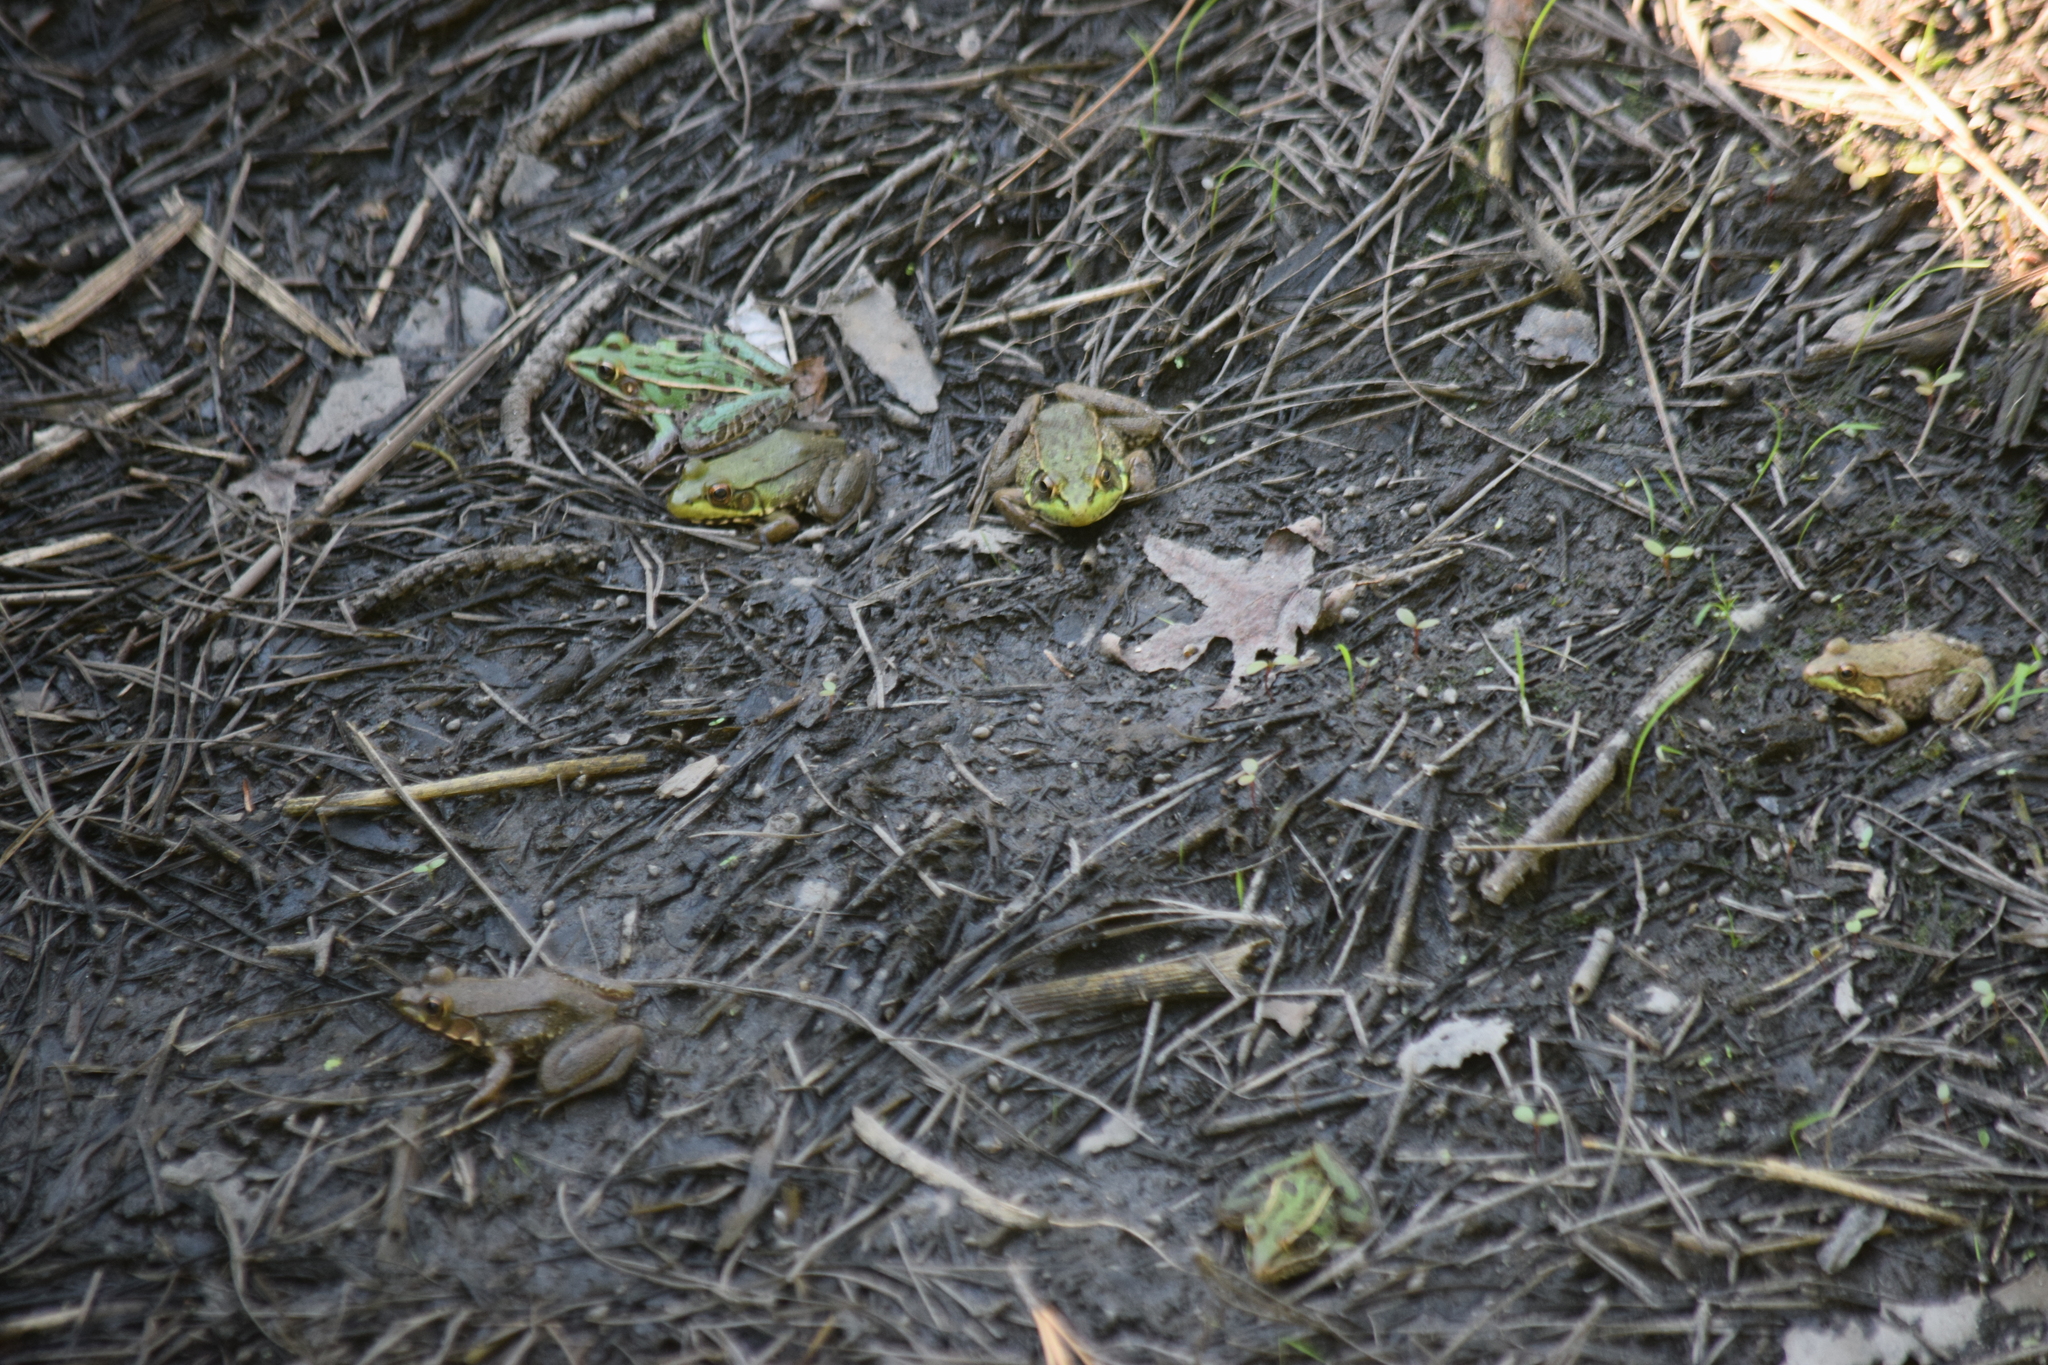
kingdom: Animalia
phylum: Chordata
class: Amphibia
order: Anura
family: Ranidae
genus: Lithobates
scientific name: Lithobates clamitans
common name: Green frog
